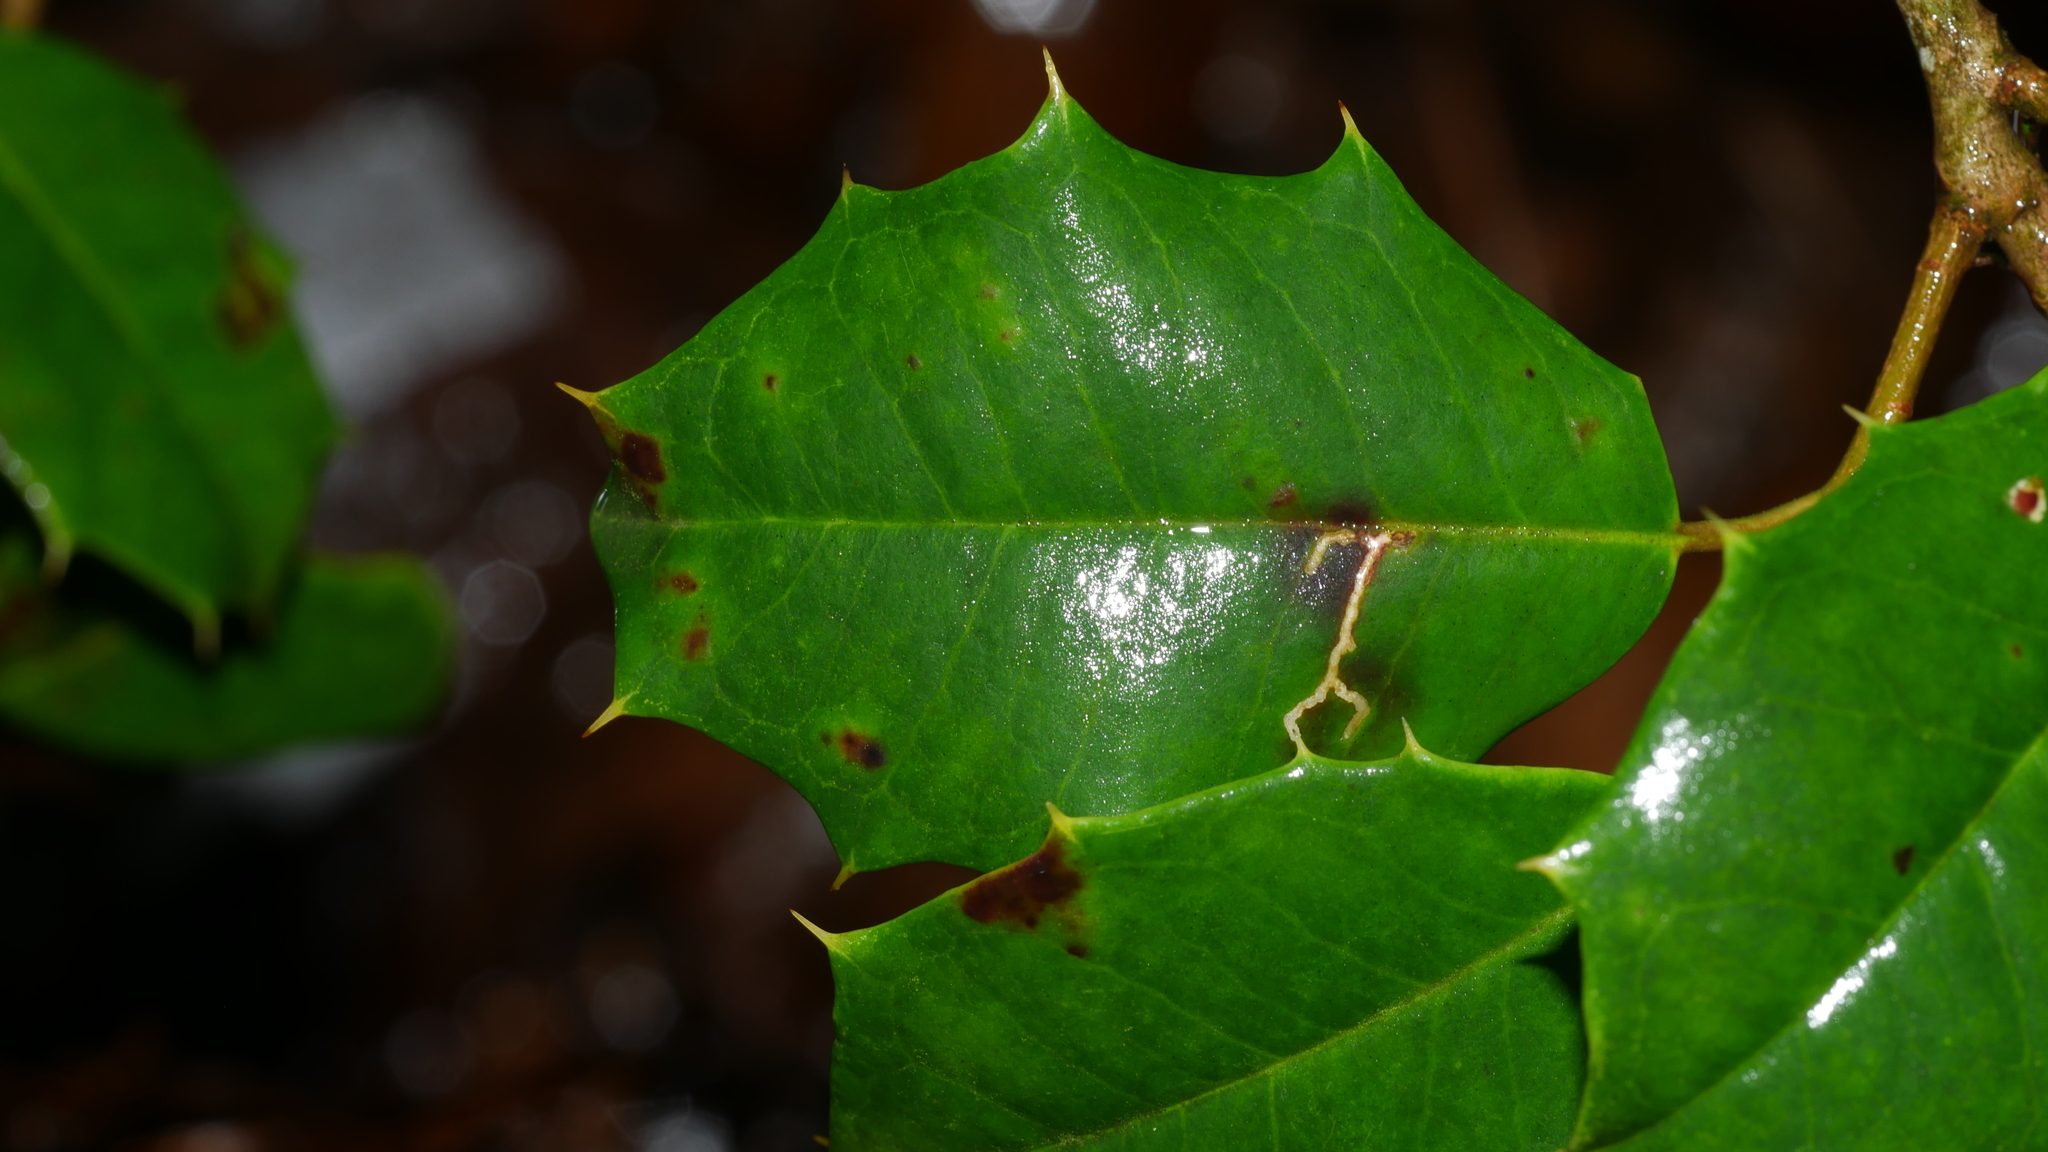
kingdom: Animalia
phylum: Arthropoda
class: Insecta
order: Lepidoptera
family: Tortricidae
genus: Rhopobota
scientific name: Rhopobota
